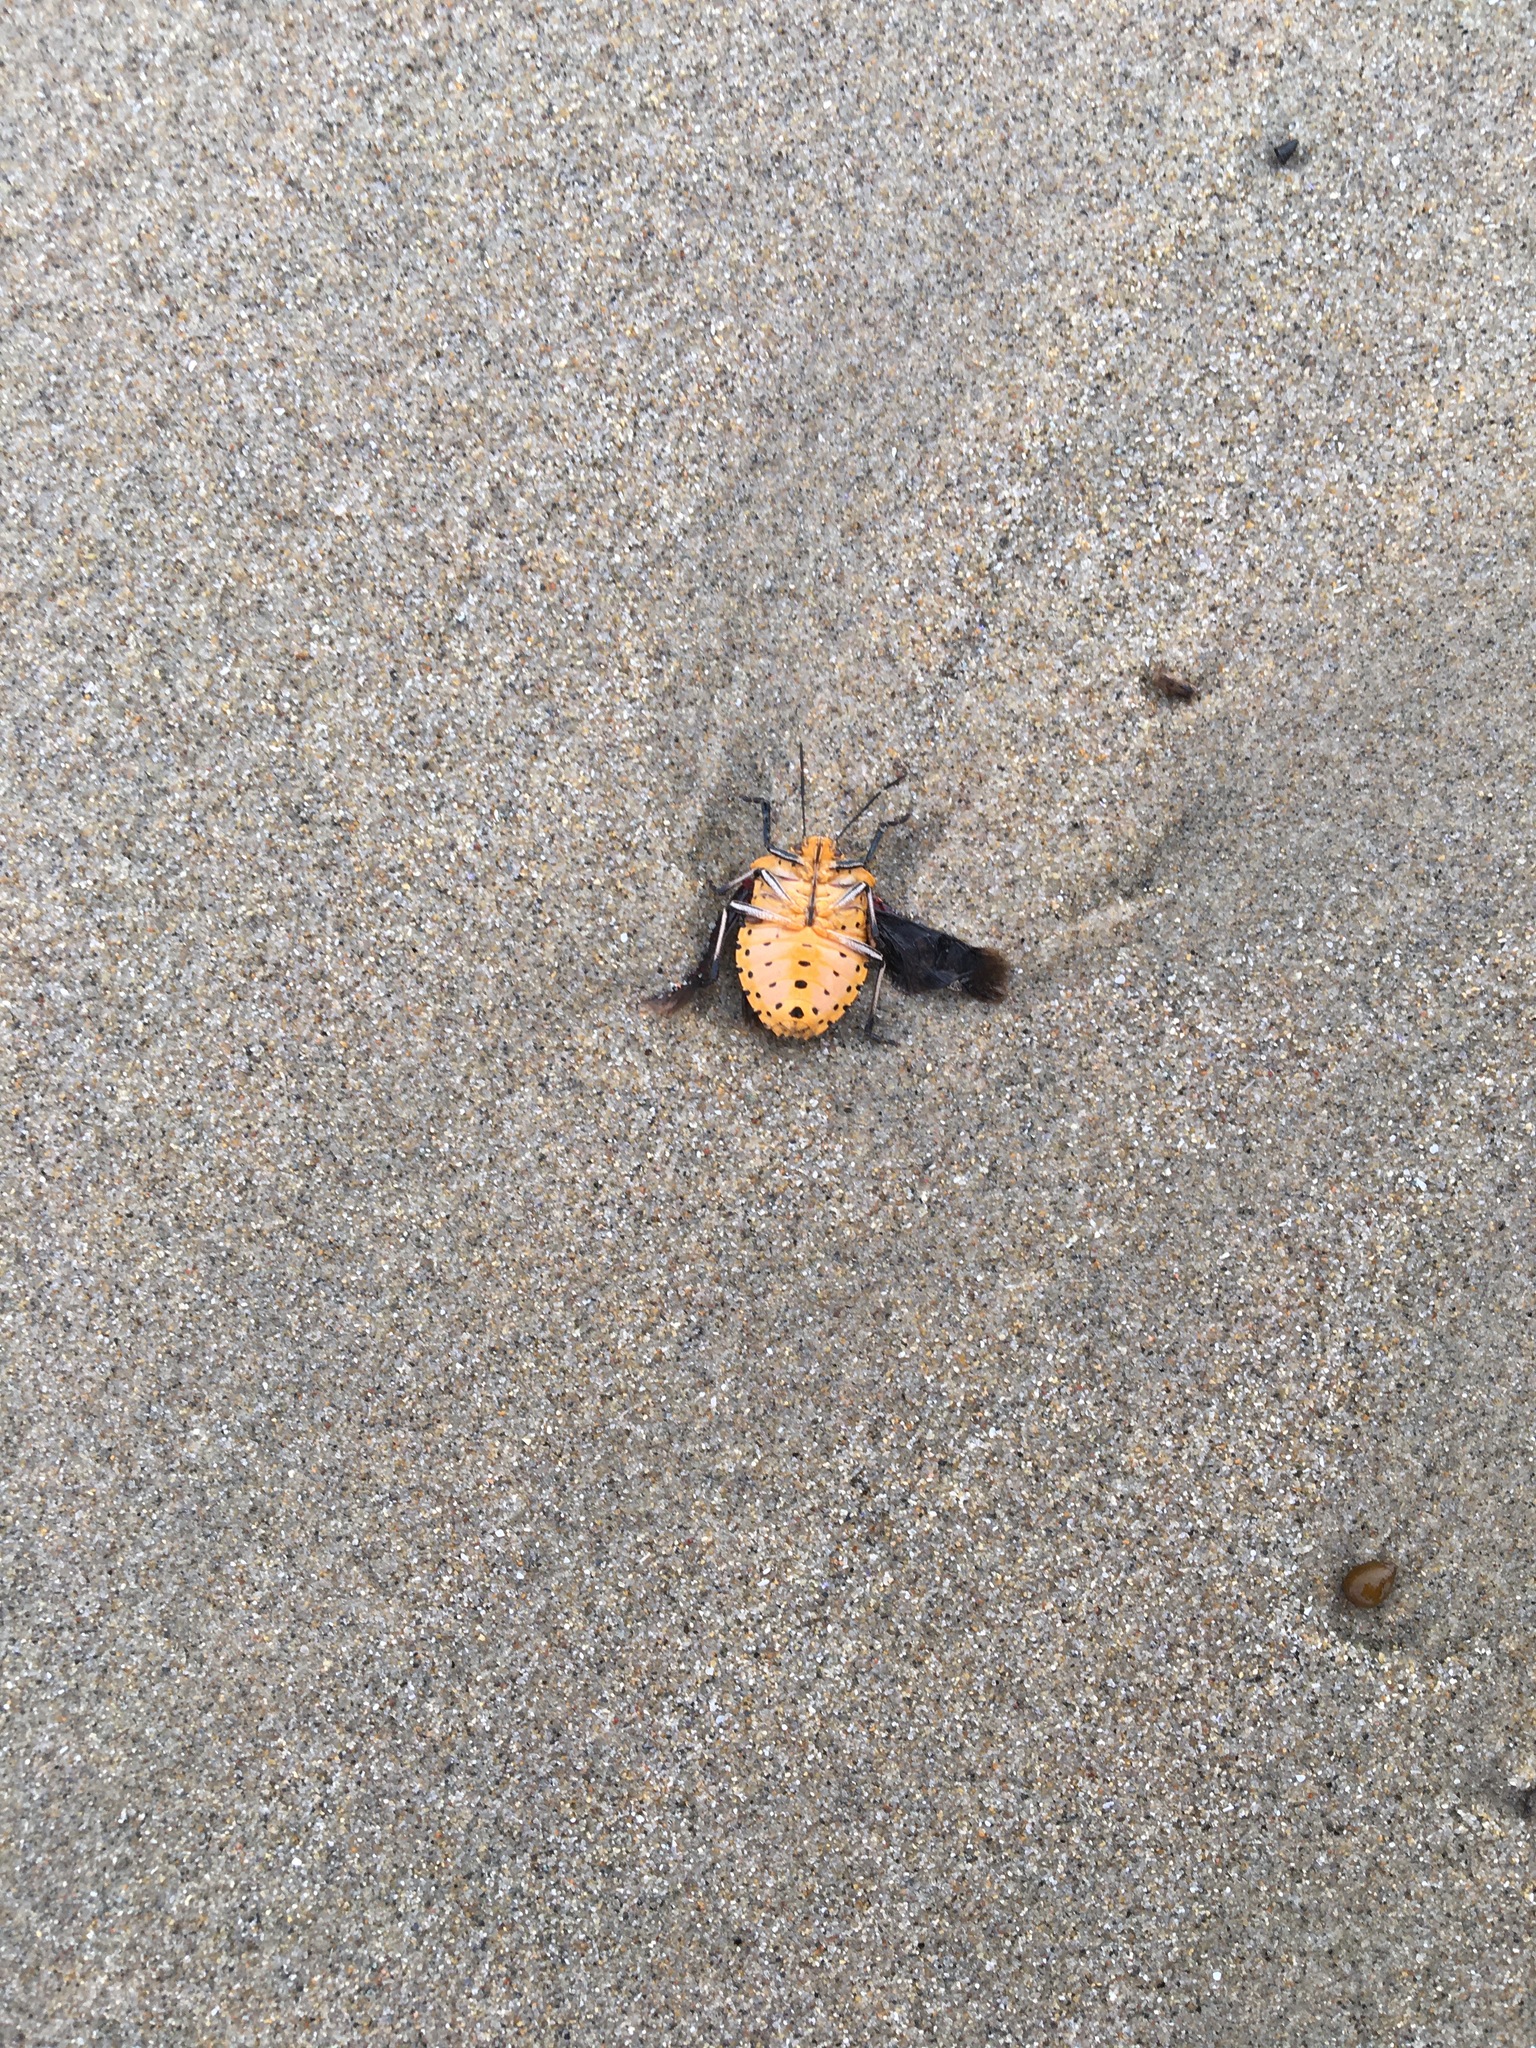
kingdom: Animalia
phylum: Arthropoda
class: Insecta
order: Hemiptera
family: Pentatomidae
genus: Pellaea
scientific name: Pellaea stictica
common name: Stink bug
